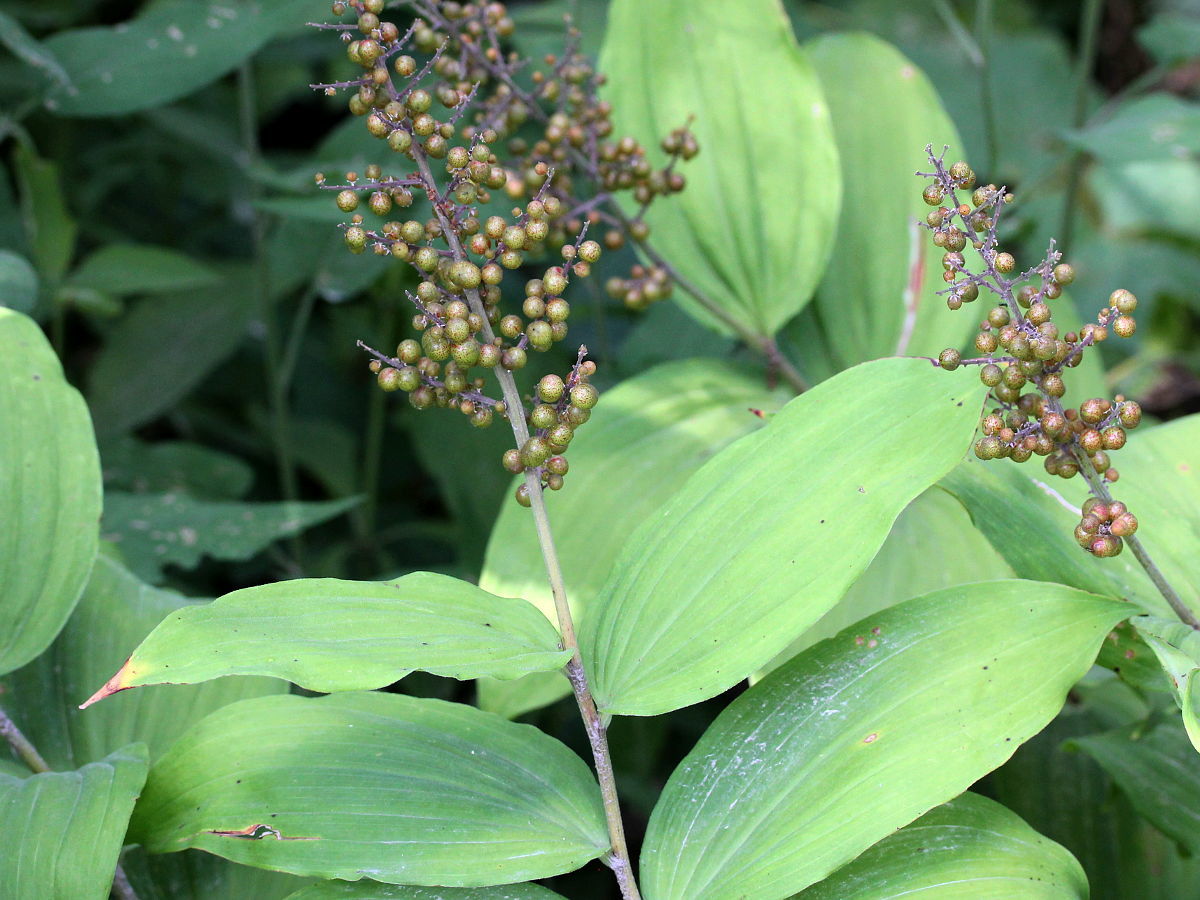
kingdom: Plantae
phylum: Tracheophyta
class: Liliopsida
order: Asparagales
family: Asparagaceae
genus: Maianthemum
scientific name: Maianthemum racemosum
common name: False spikenard
